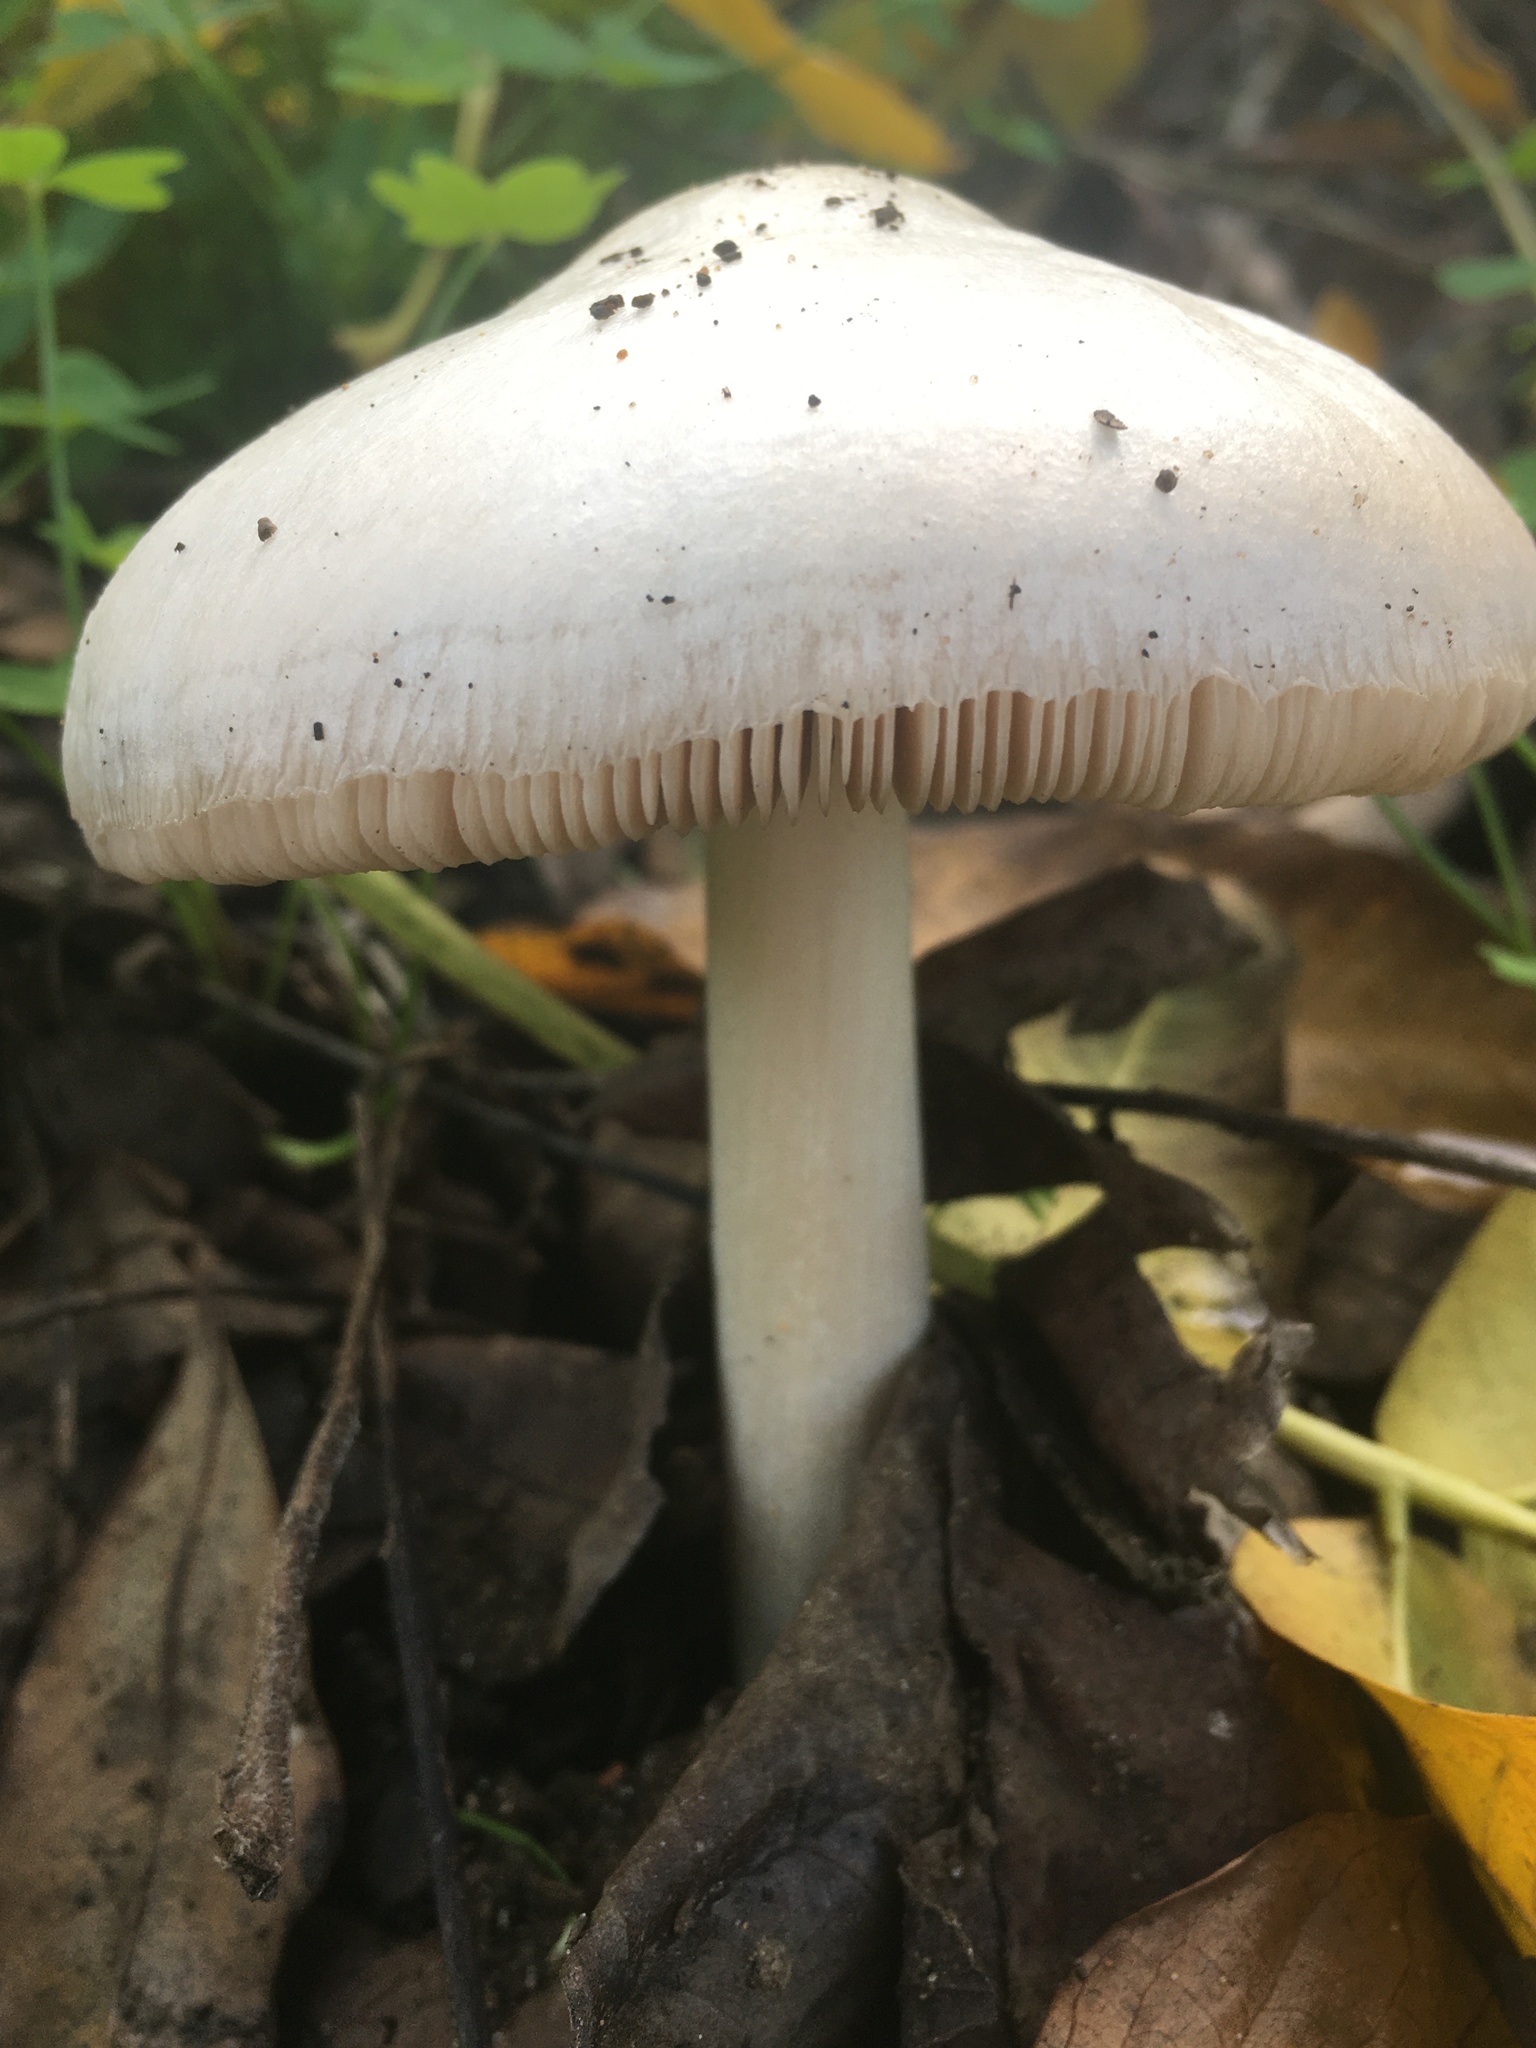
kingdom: Fungi
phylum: Basidiomycota
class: Agaricomycetes
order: Agaricales
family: Pluteaceae
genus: Volvopluteus
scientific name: Volvopluteus gloiocephalus
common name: Stubble rosegill
